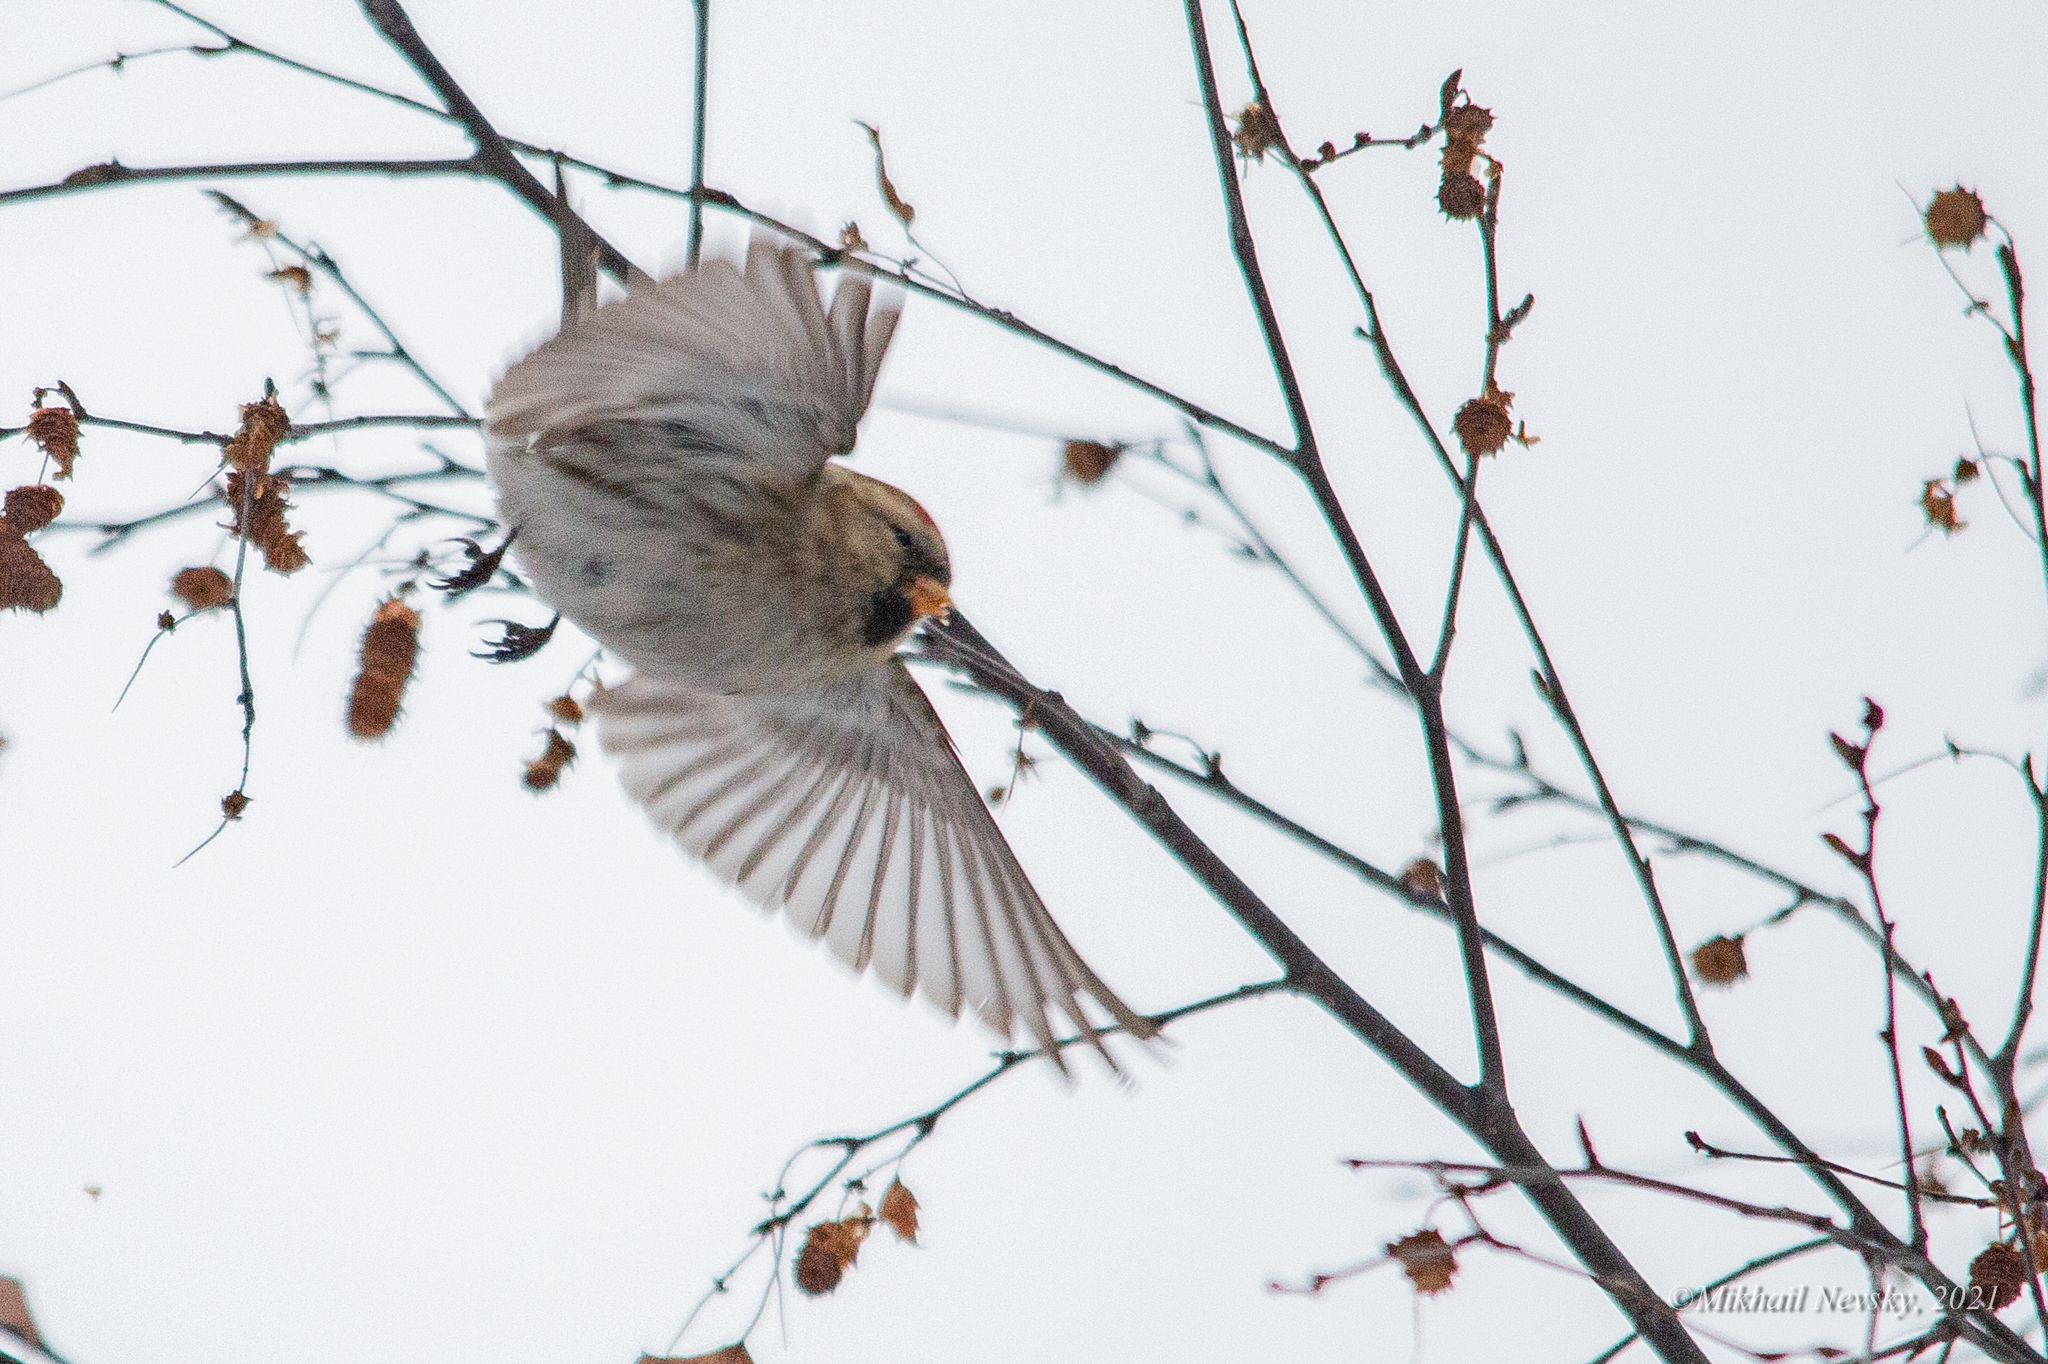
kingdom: Animalia
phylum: Chordata
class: Aves
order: Passeriformes
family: Fringillidae
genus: Acanthis
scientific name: Acanthis flammea
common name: Common redpoll
